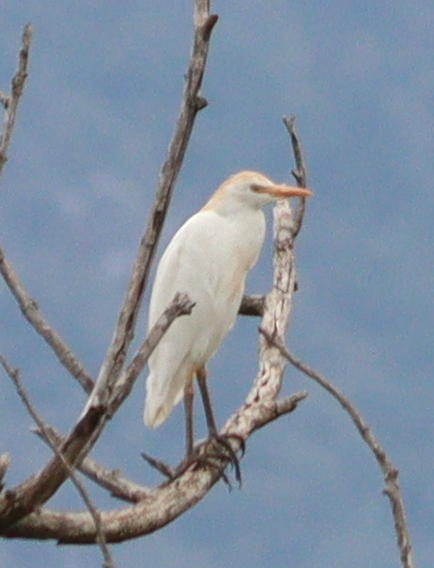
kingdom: Animalia
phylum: Chordata
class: Aves
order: Pelecaniformes
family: Ardeidae
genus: Bubulcus
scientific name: Bubulcus ibis
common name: Cattle egret
